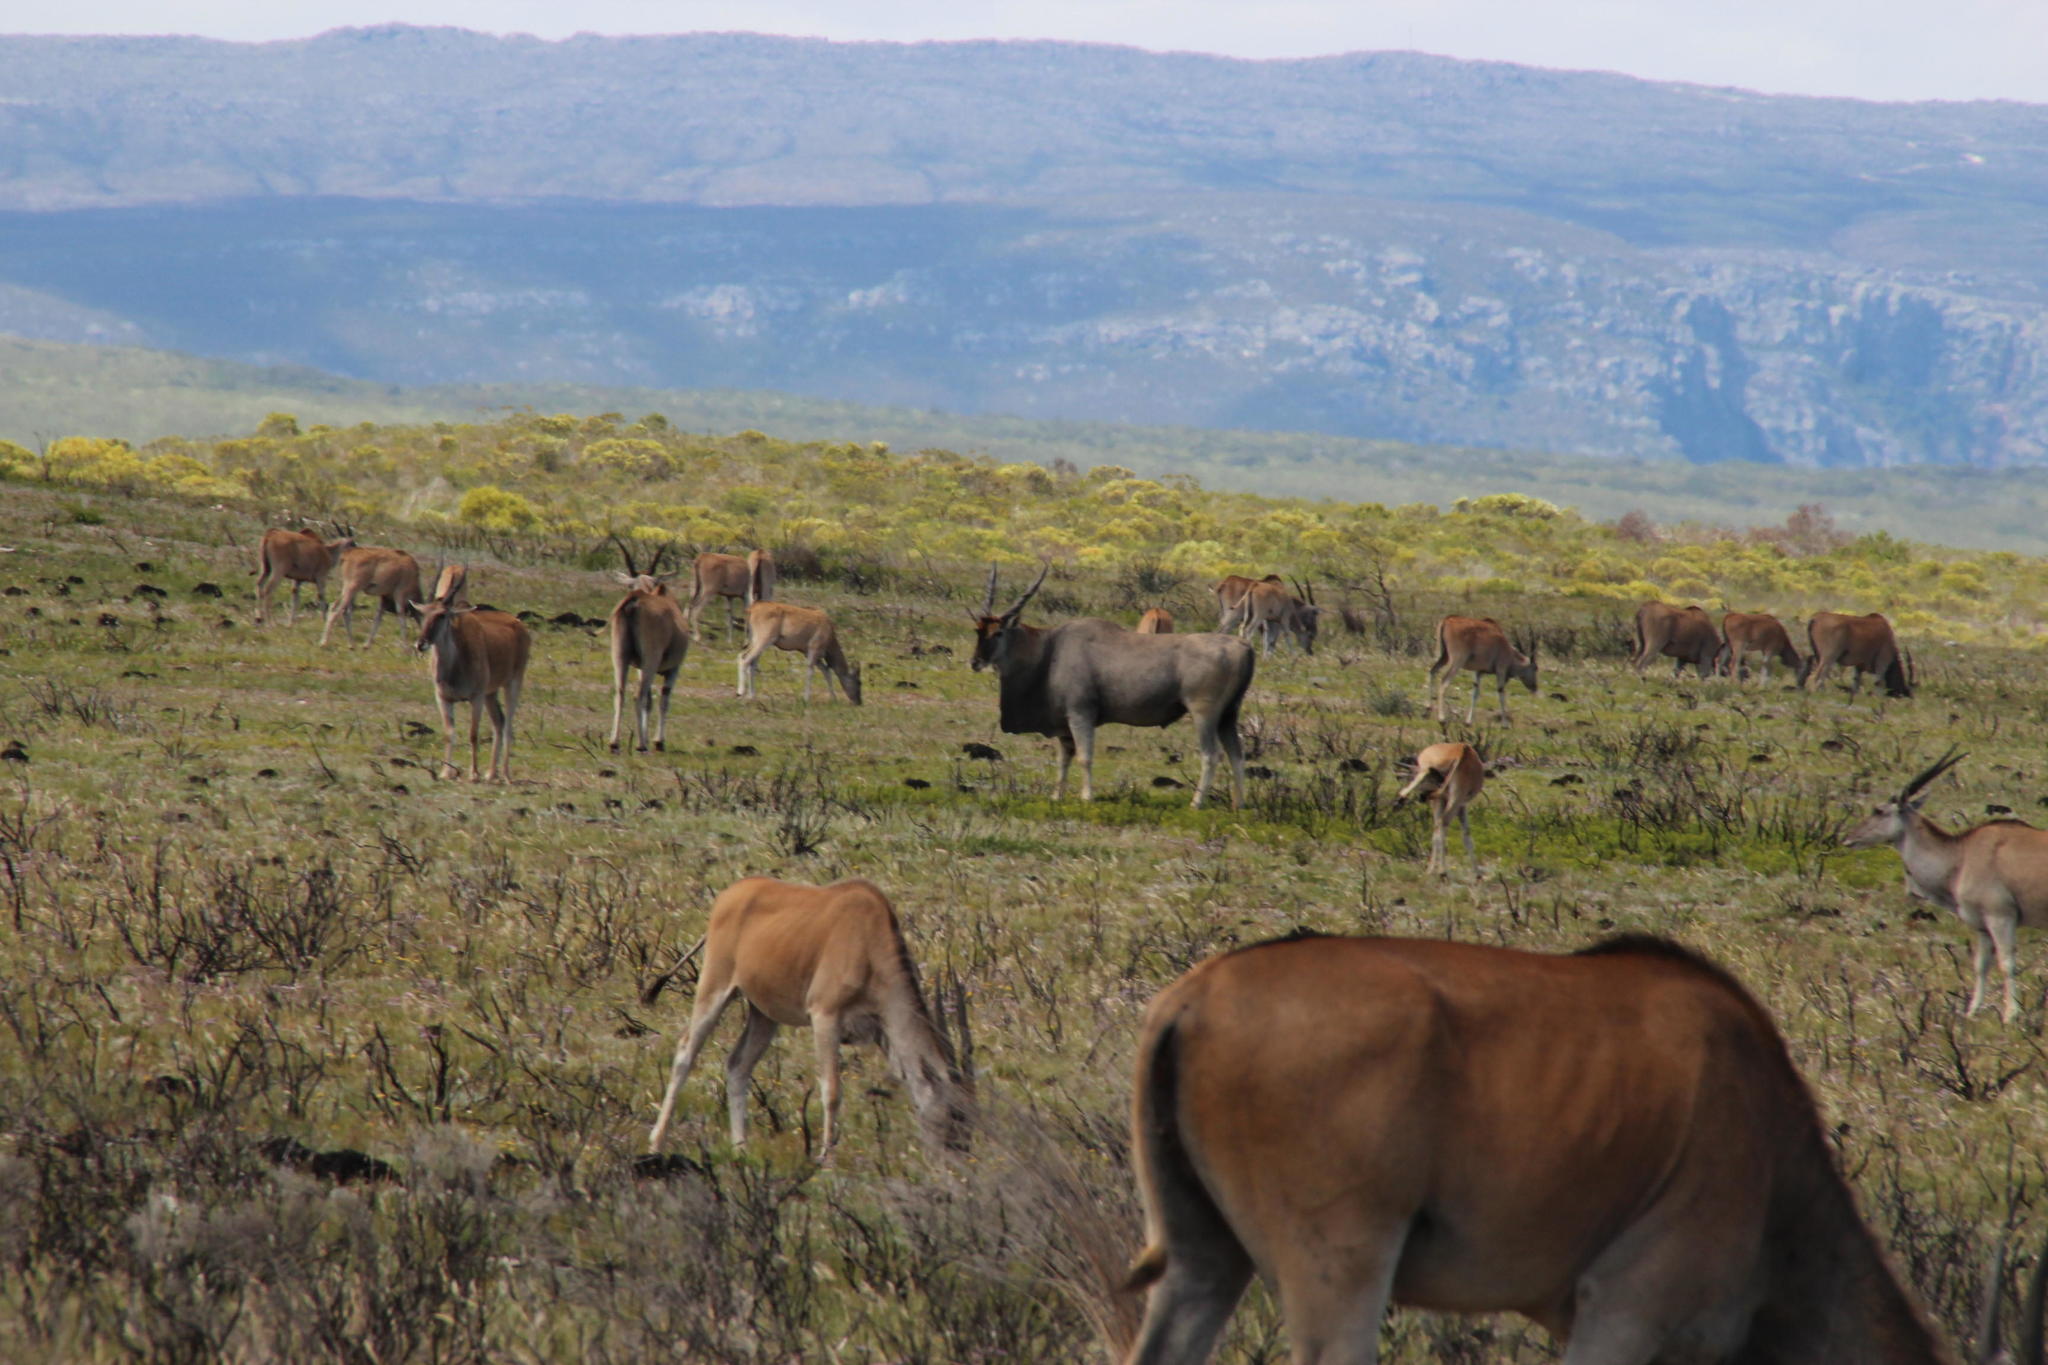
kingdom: Animalia
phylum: Chordata
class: Mammalia
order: Artiodactyla
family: Bovidae
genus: Taurotragus
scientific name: Taurotragus oryx
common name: Common eland
